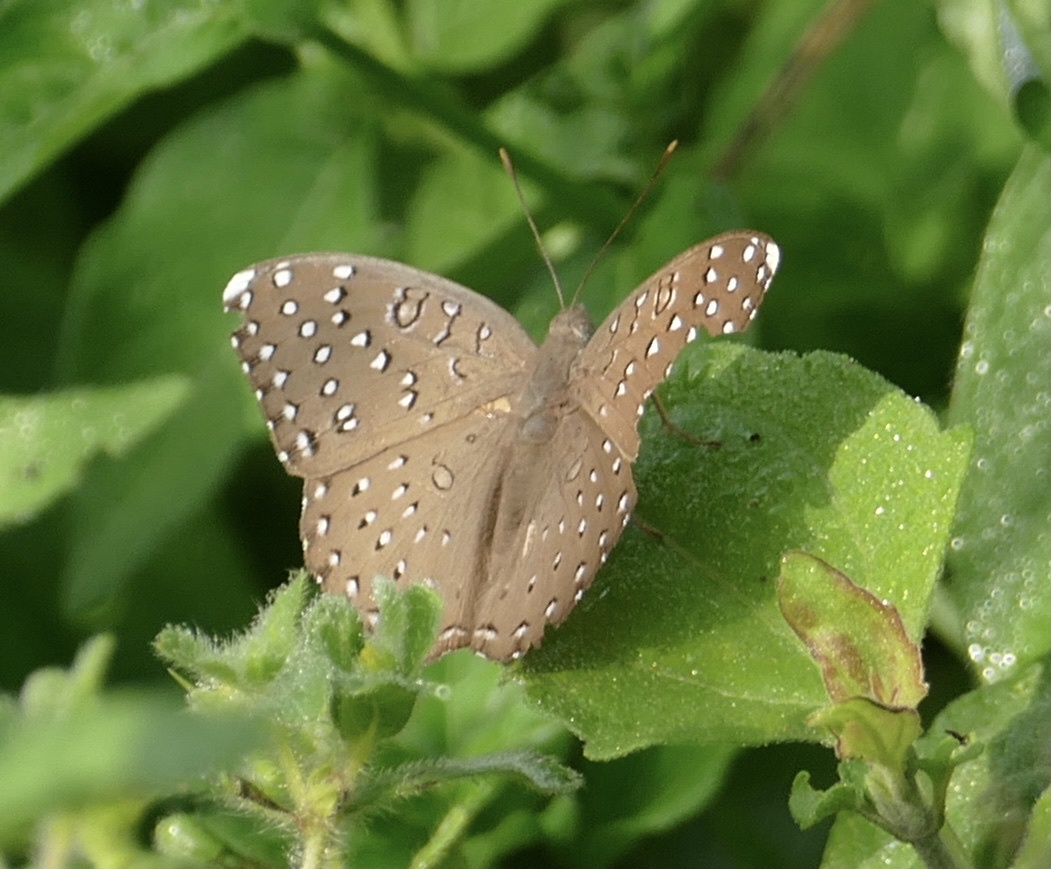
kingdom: Animalia
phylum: Arthropoda
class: Insecta
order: Lepidoptera
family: Nymphalidae
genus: Hamanumida
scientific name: Hamanumida daedalus
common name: Guinea-fowl butterfly
